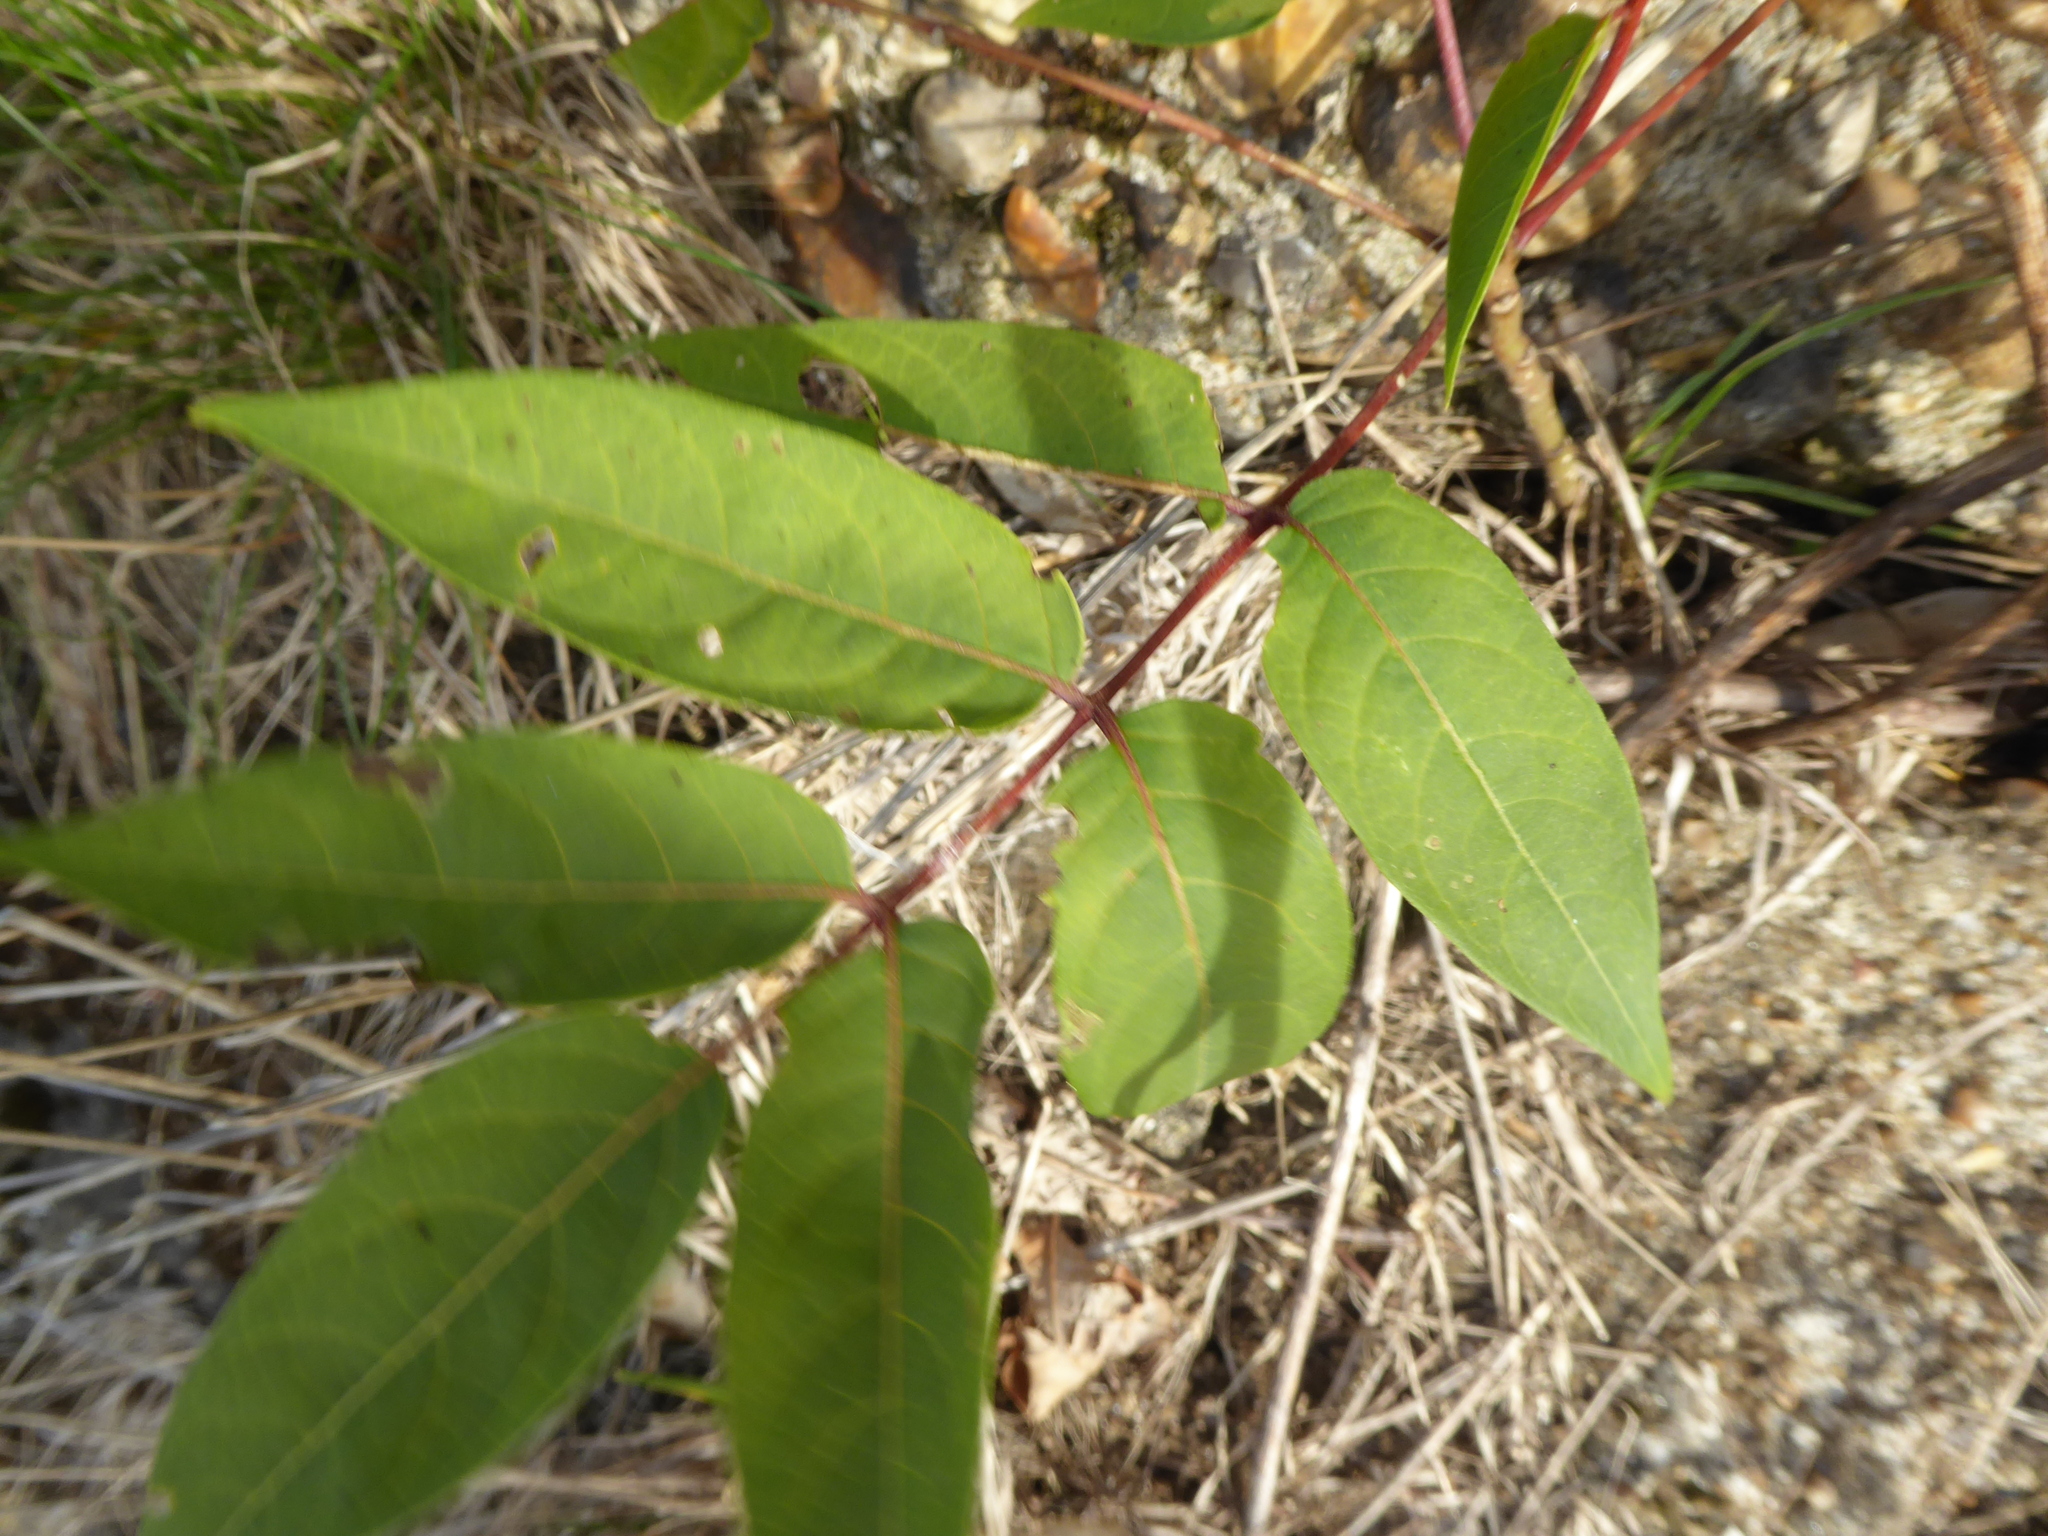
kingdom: Plantae
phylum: Tracheophyta
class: Magnoliopsida
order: Sapindales
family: Simaroubaceae
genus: Ailanthus
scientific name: Ailanthus altissima
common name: Tree-of-heaven
